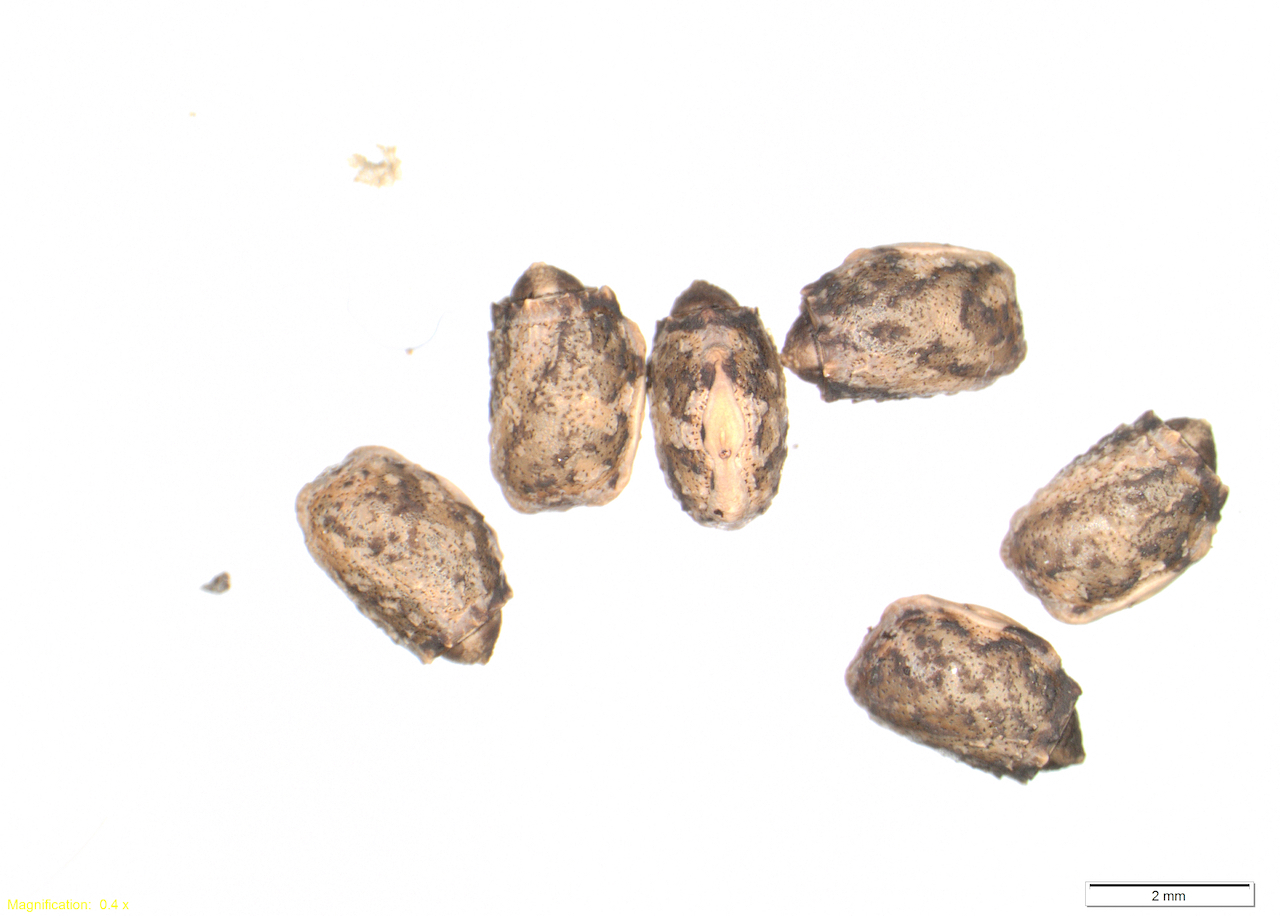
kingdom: Animalia
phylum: Arthropoda
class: Insecta
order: Phasmida
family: Phasmatidae
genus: Clitarchus
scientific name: Clitarchus hookeri
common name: Smooth stick insect
